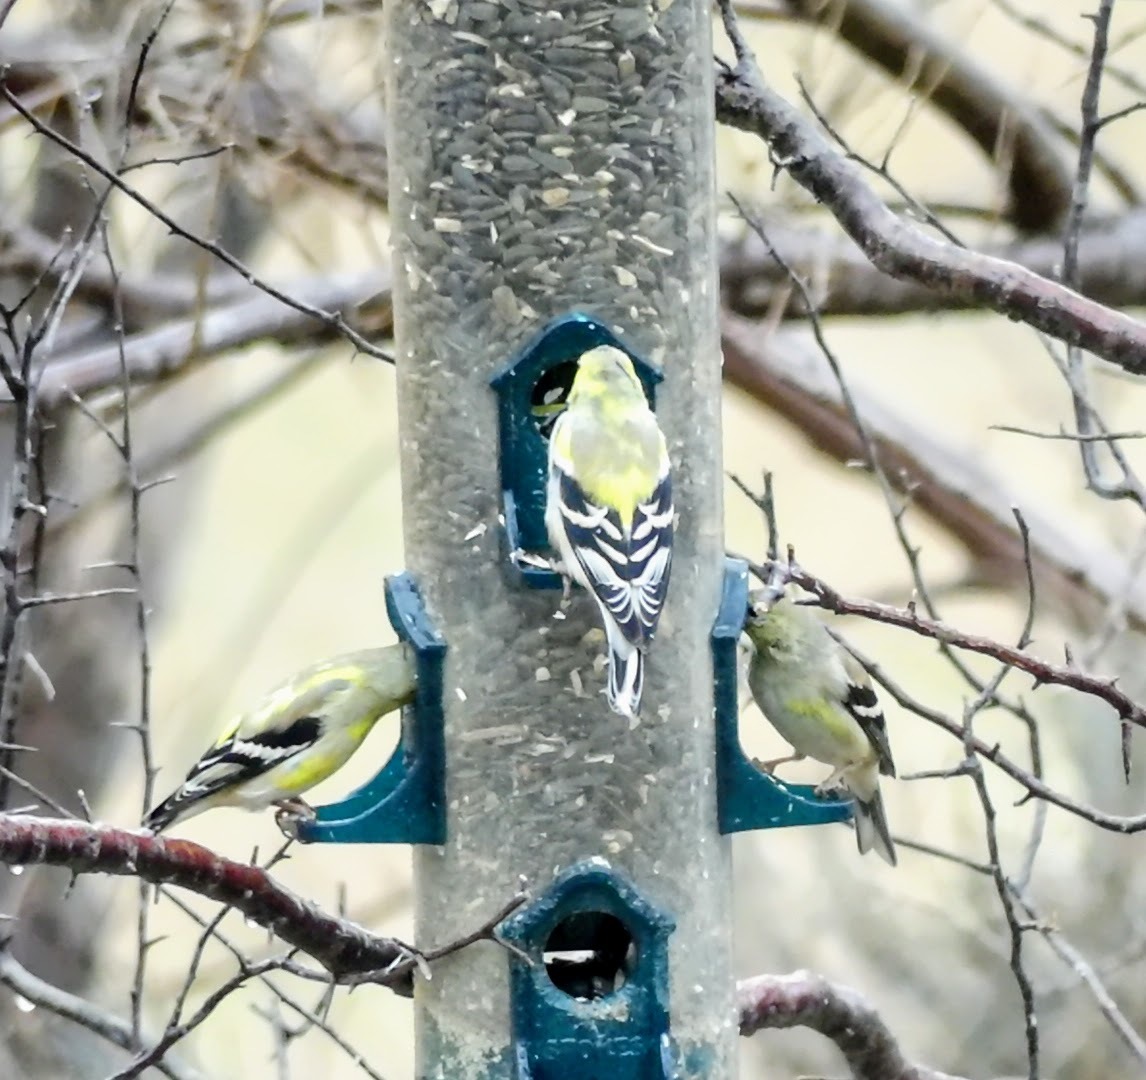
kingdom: Animalia
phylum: Chordata
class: Aves
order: Passeriformes
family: Fringillidae
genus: Spinus
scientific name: Spinus tristis
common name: American goldfinch
